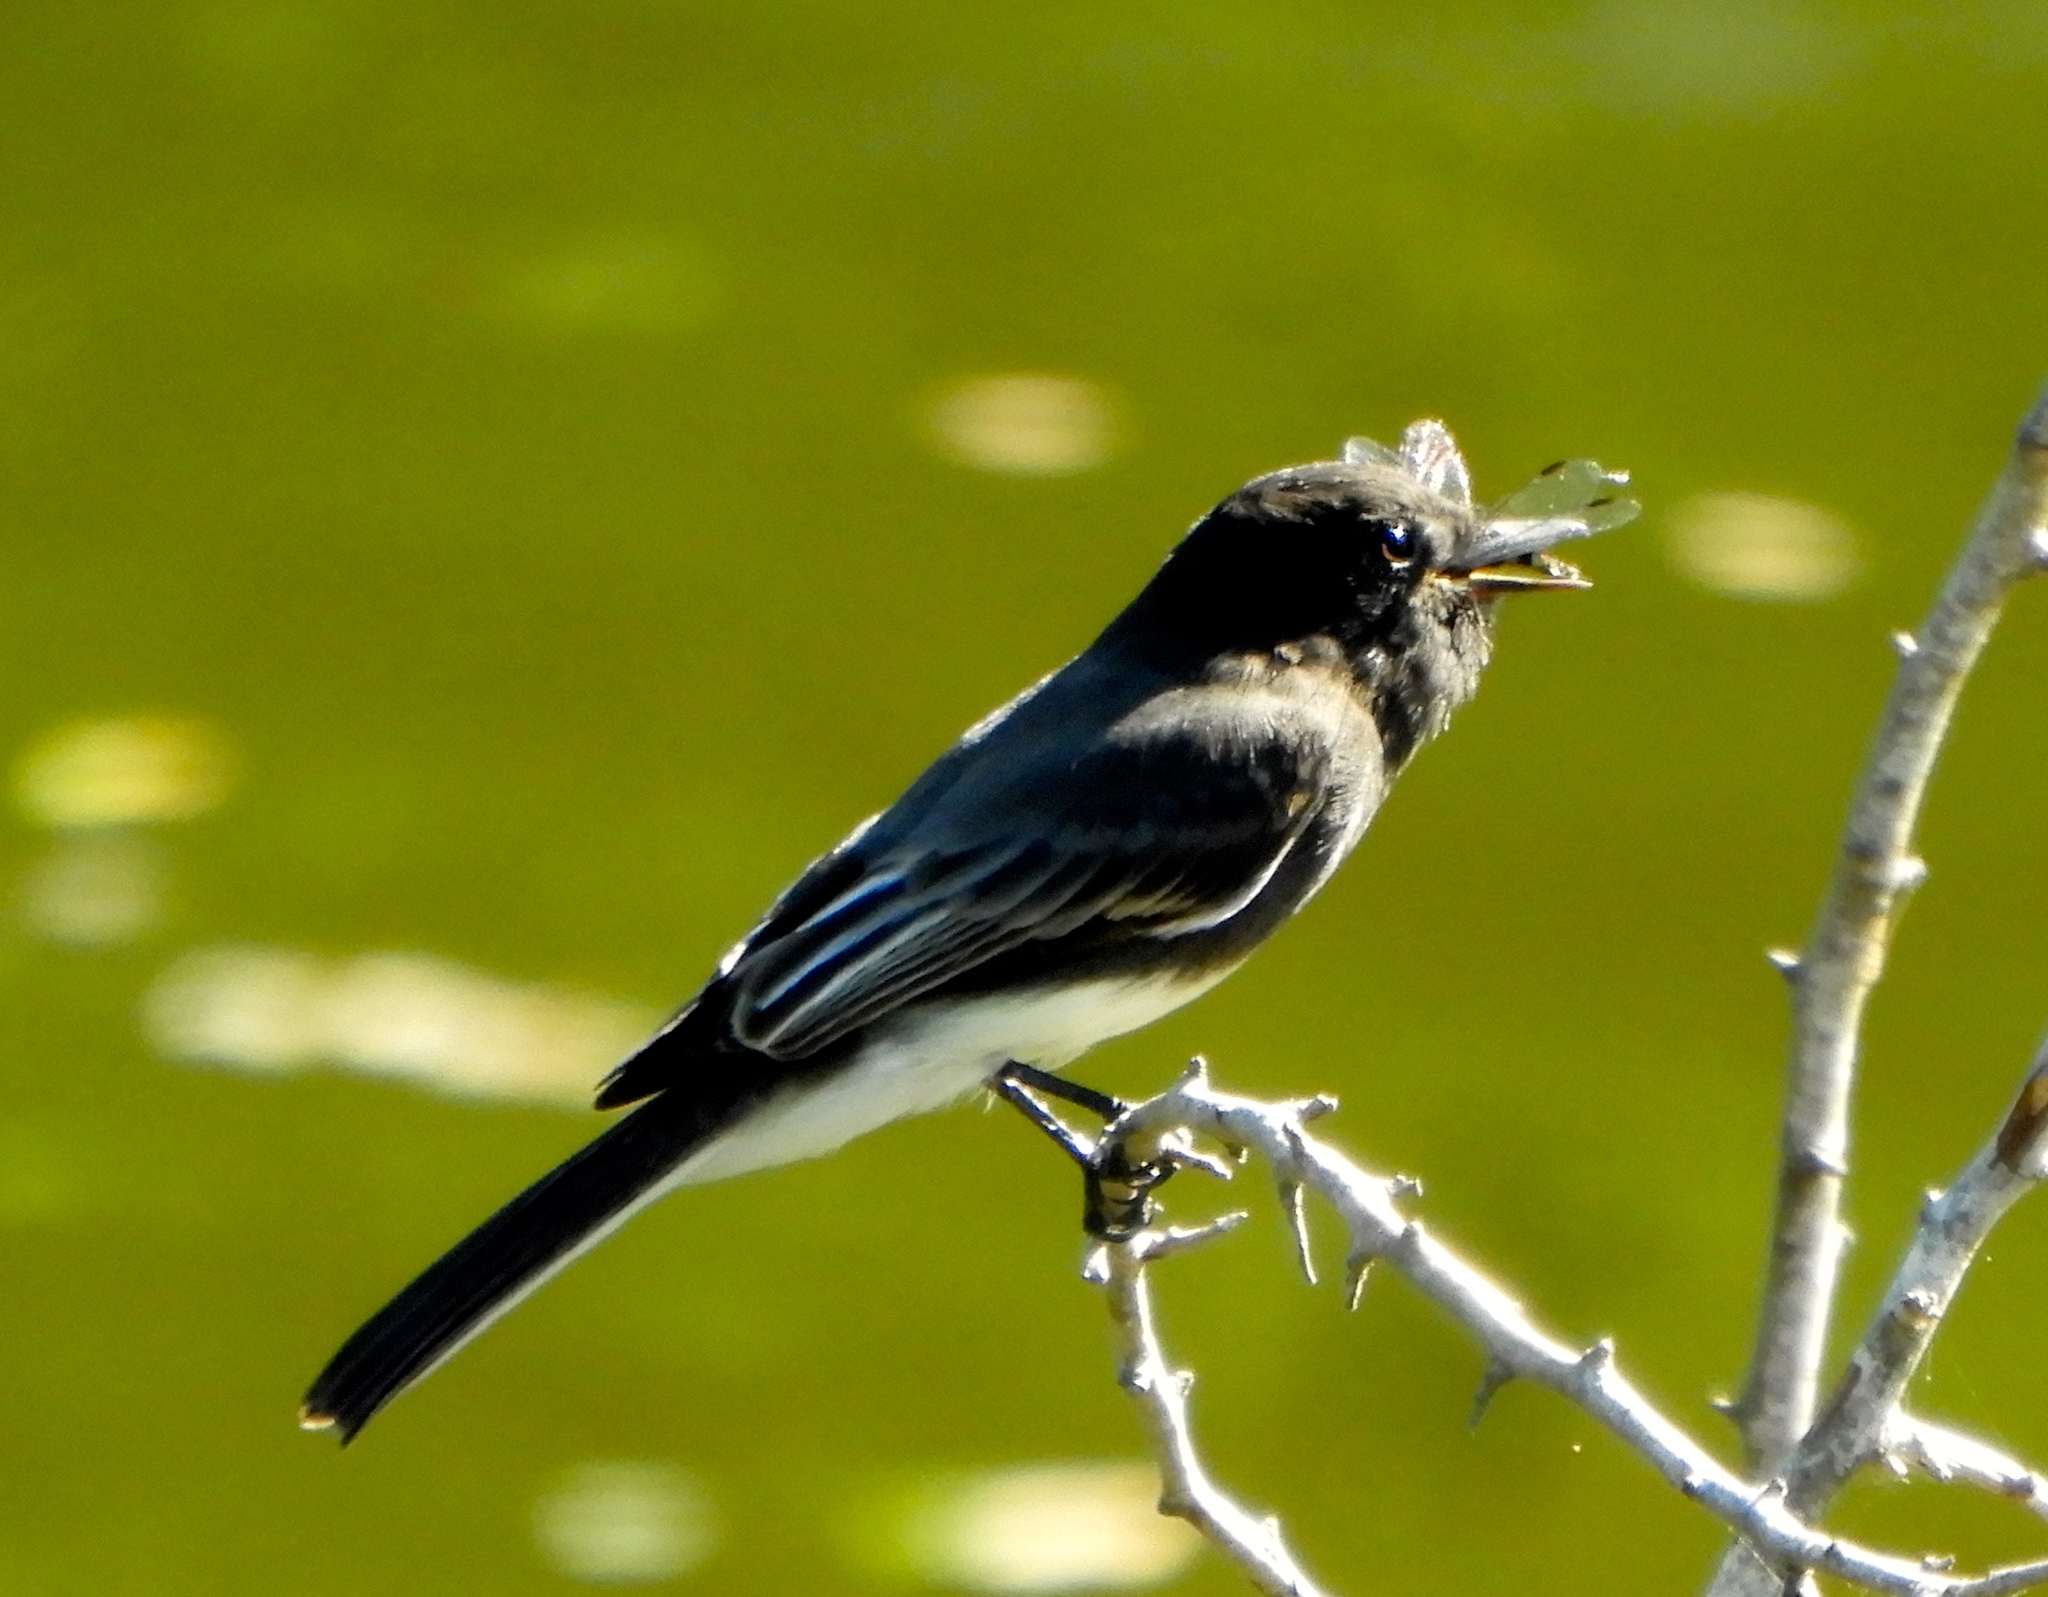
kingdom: Animalia
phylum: Chordata
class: Aves
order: Passeriformes
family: Tyrannidae
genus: Sayornis
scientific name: Sayornis nigricans
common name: Black phoebe
